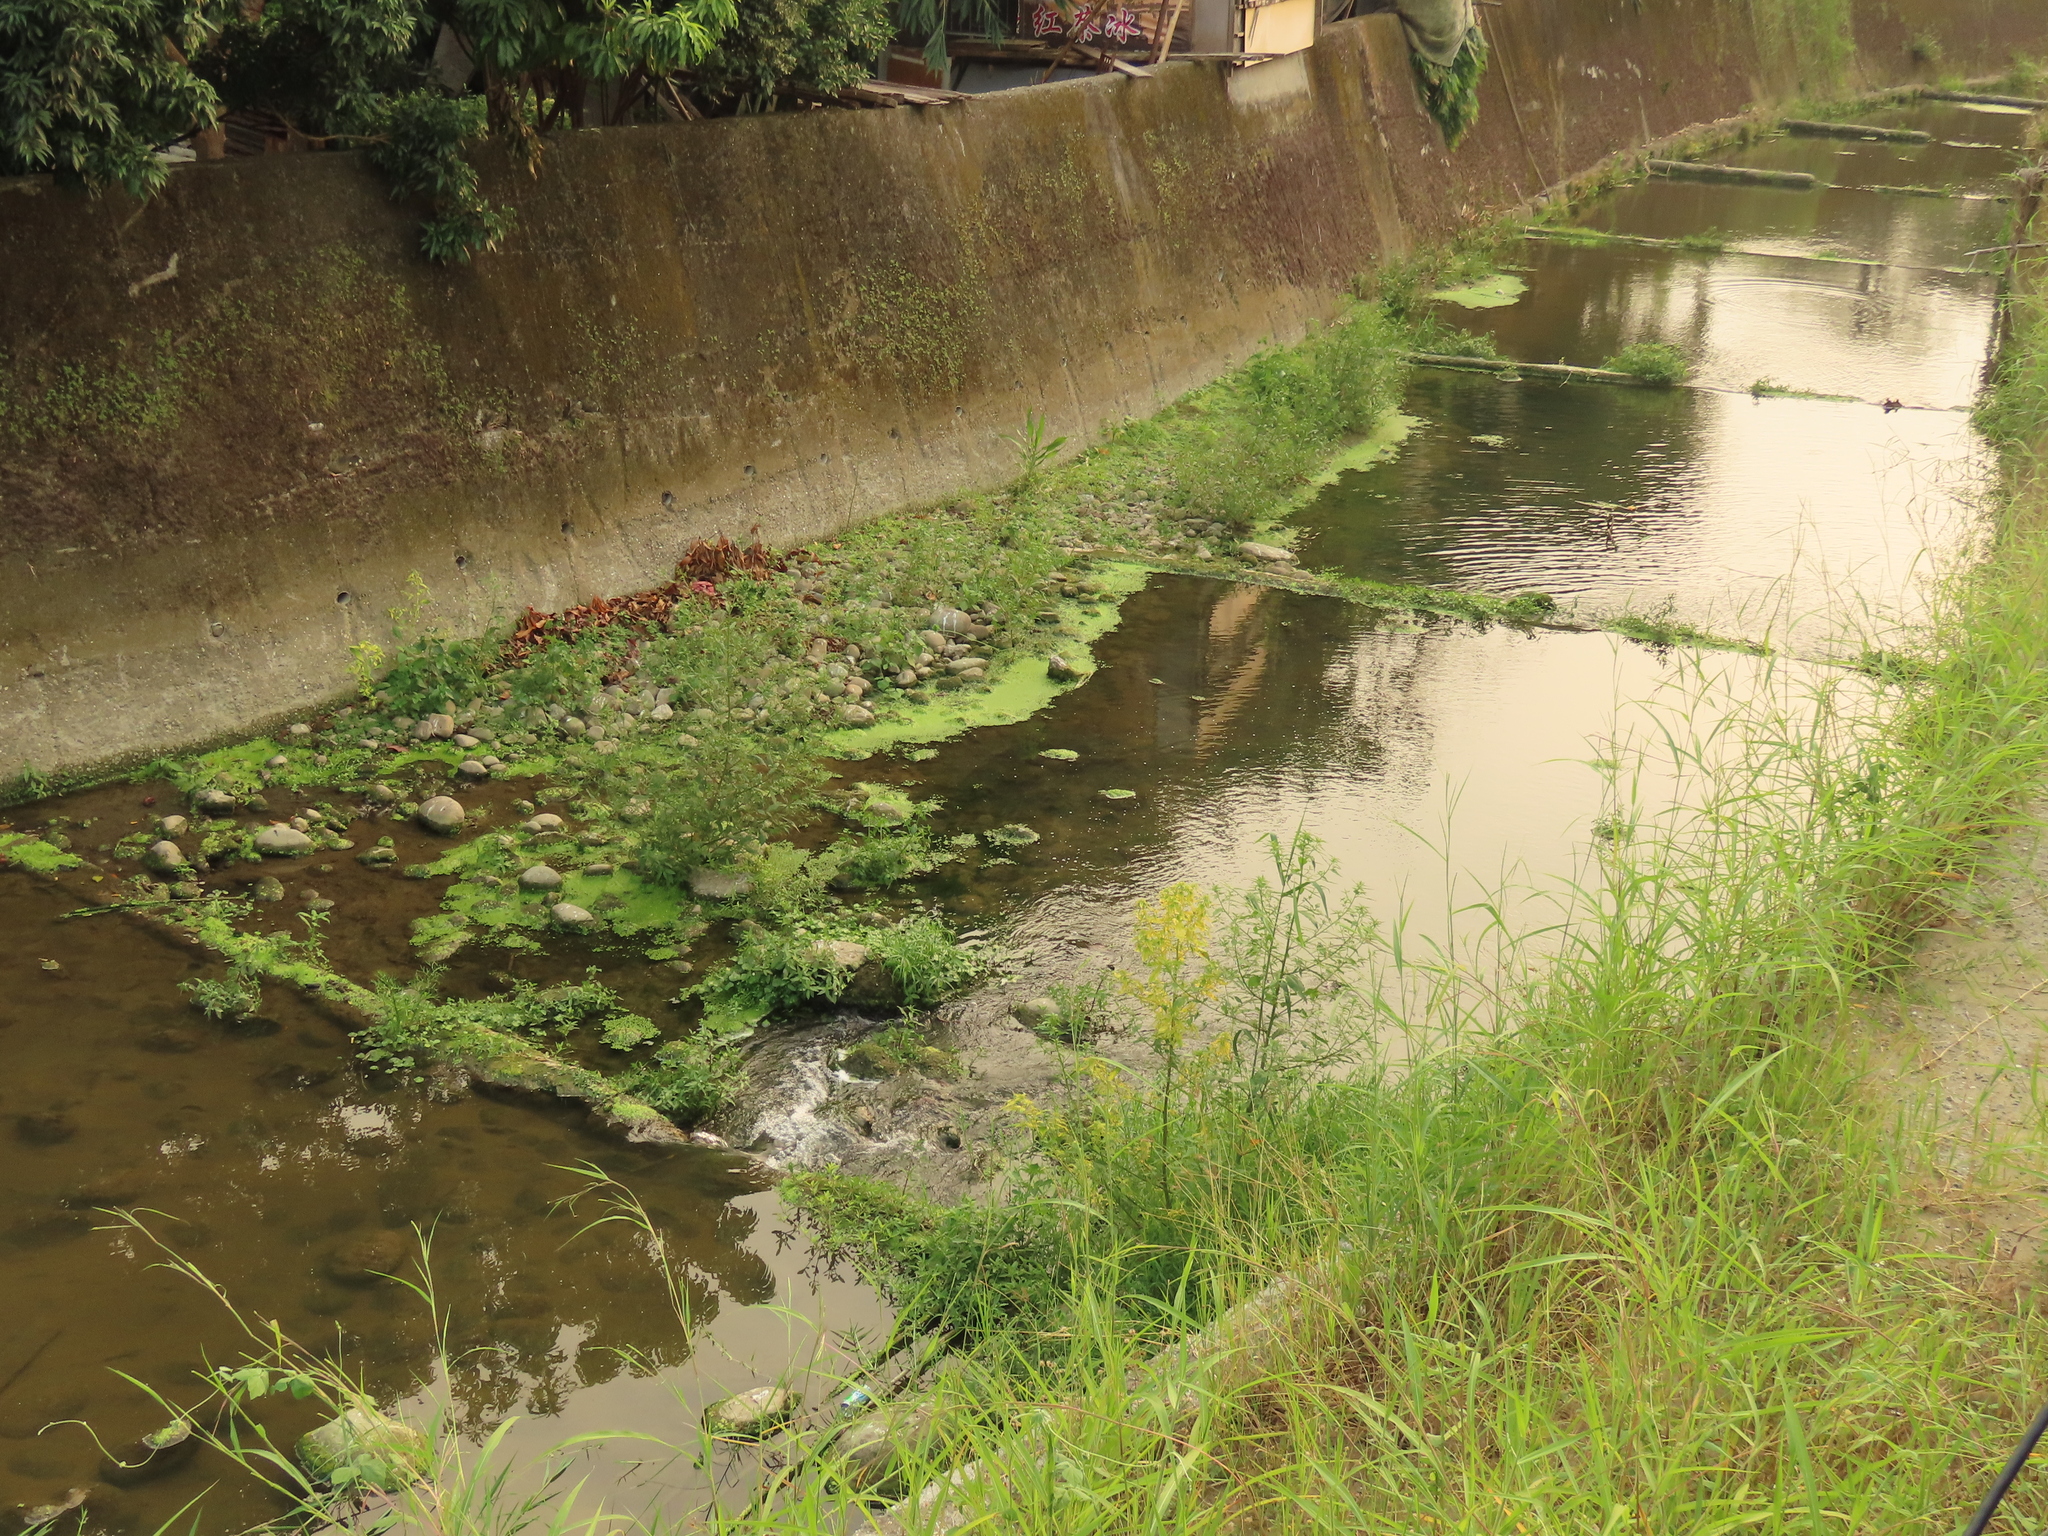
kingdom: Plantae
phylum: Tracheophyta
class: Polypodiopsida
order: Polypodiales
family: Pteridaceae
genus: Ceratopteris
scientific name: Ceratopteris thalictroides
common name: Water fern
